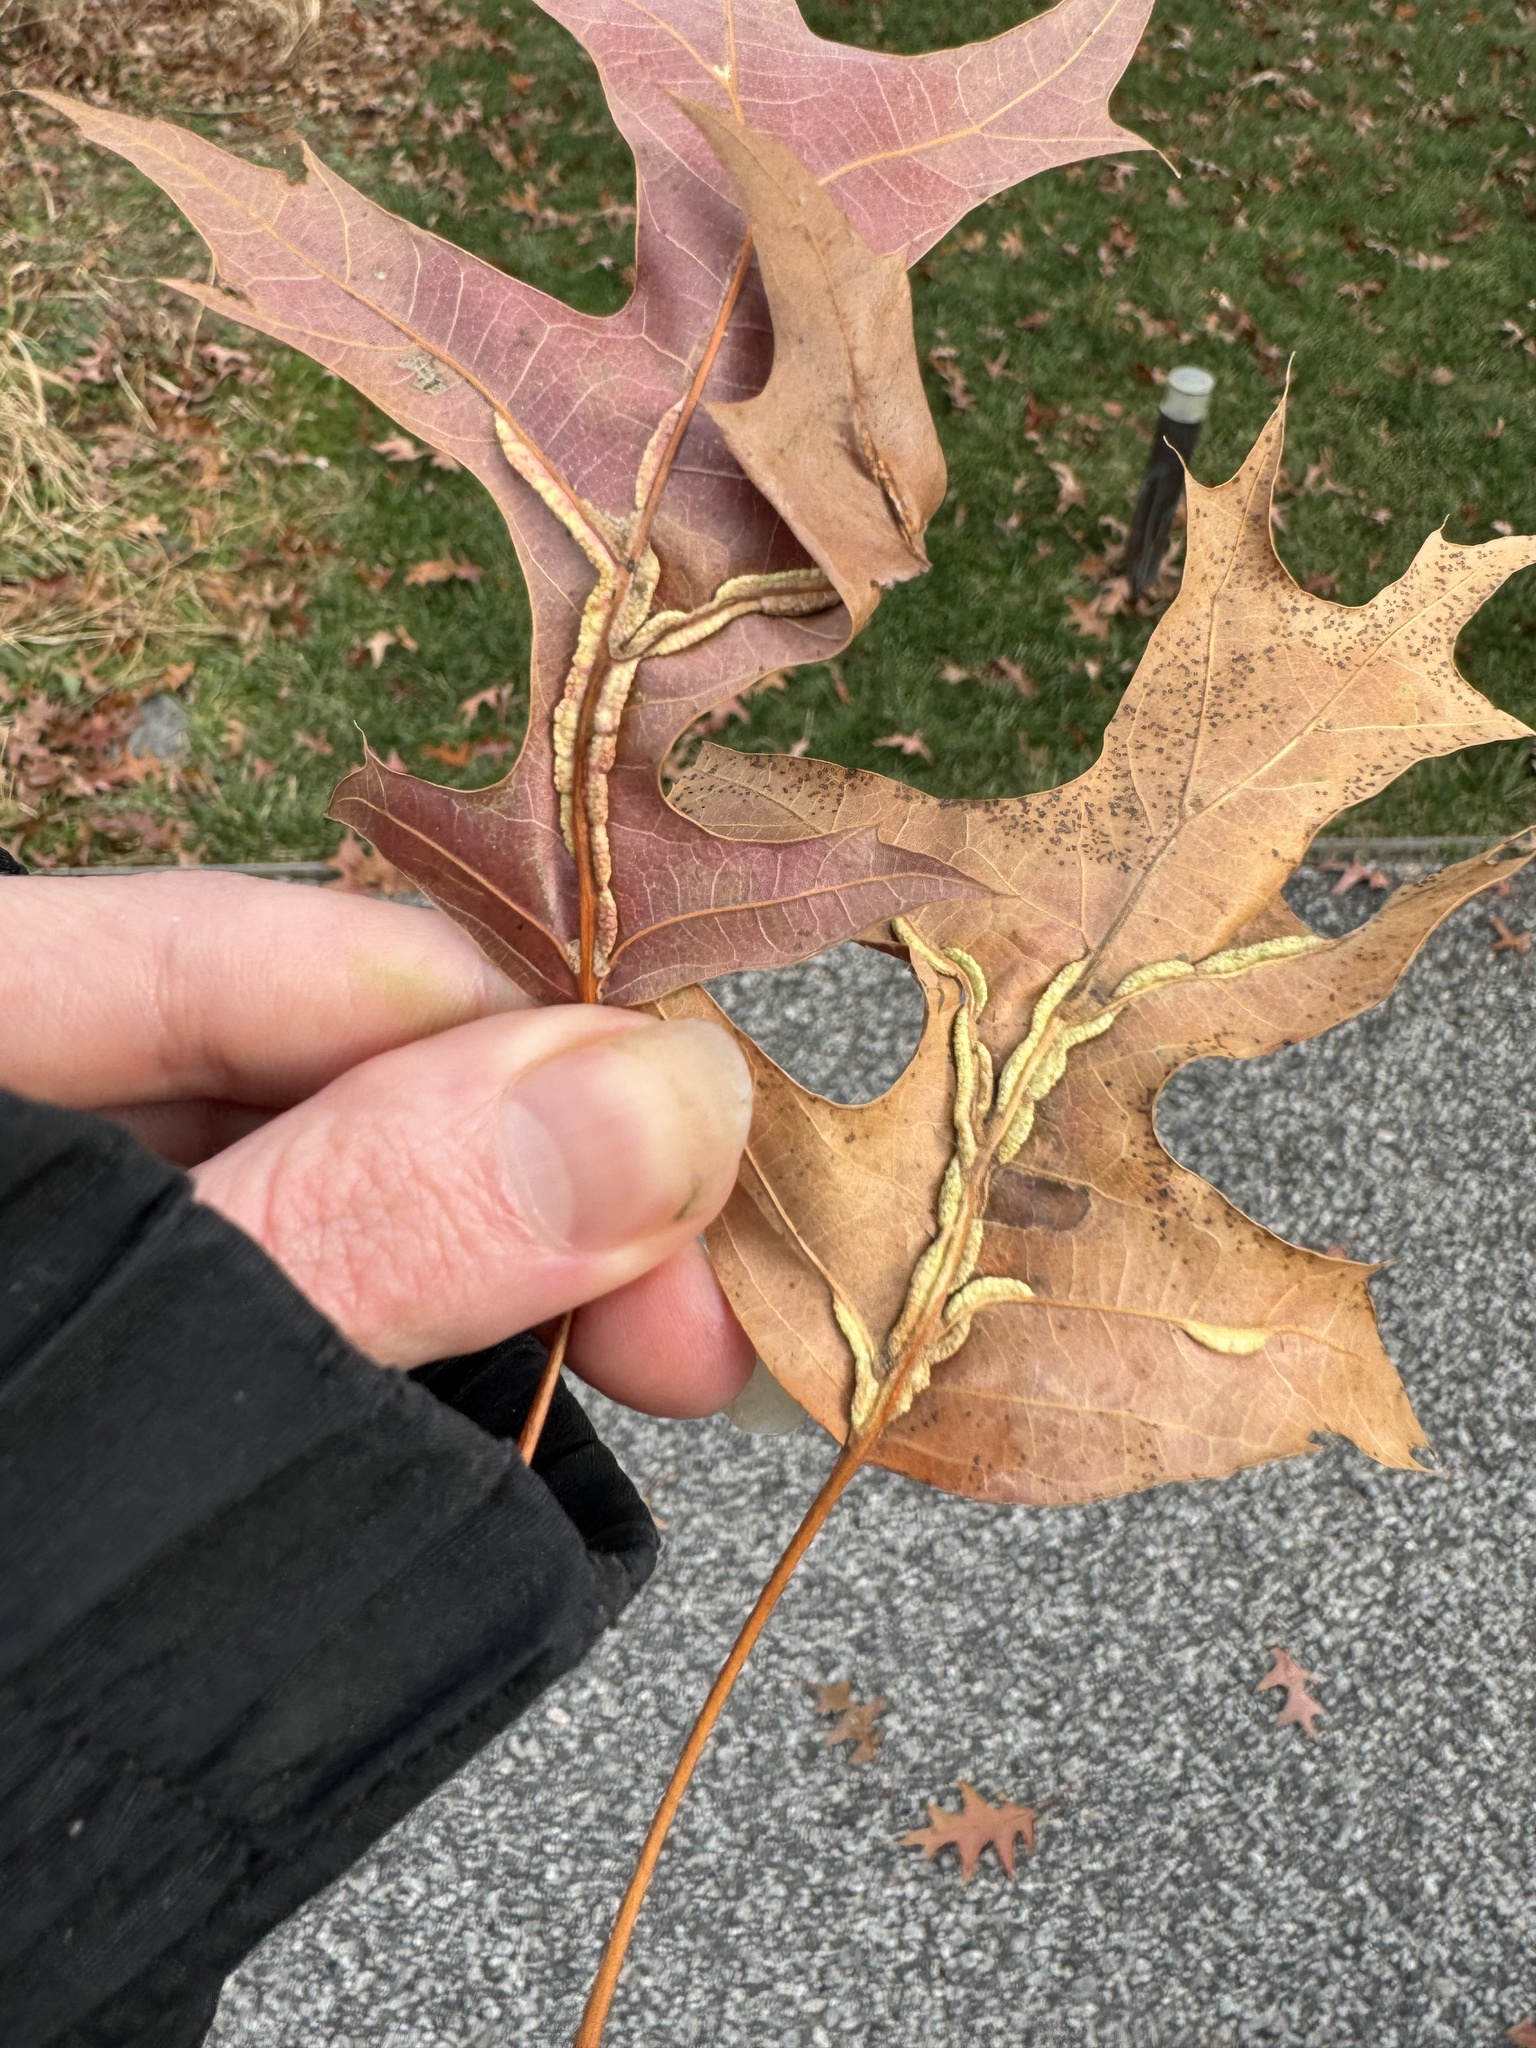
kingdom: Animalia
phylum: Arthropoda
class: Insecta
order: Diptera
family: Cecidomyiidae
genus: Macrodiplosis
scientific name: Macrodiplosis q-orucum
